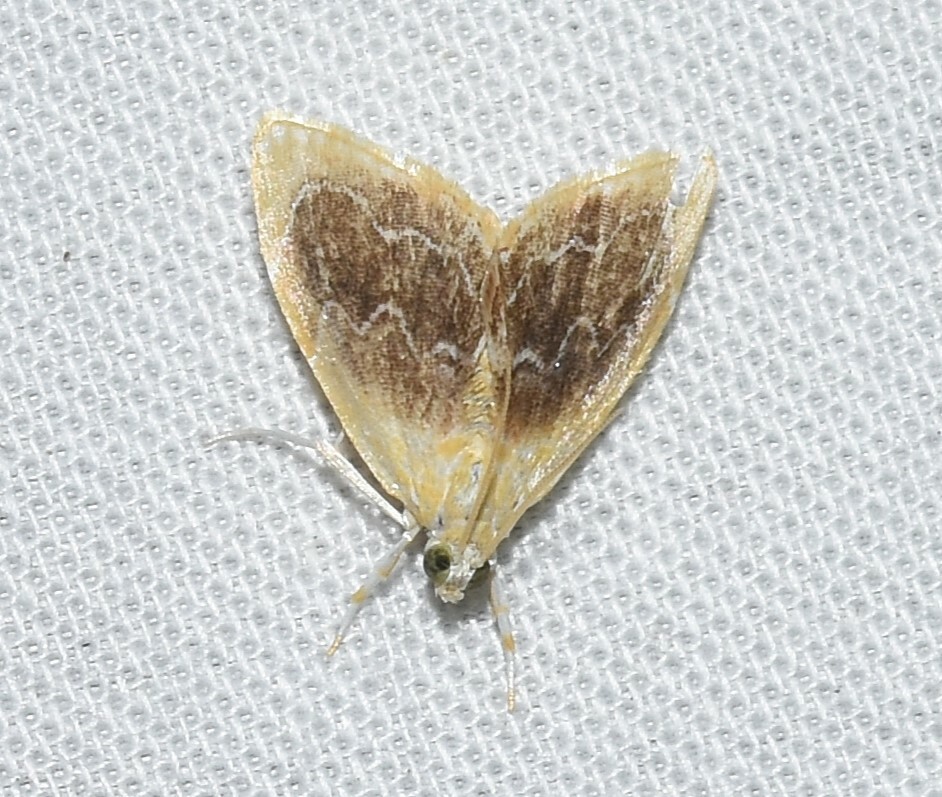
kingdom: Animalia
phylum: Arthropoda
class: Insecta
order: Lepidoptera
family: Crambidae
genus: Glaphyria
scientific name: Glaphyria fulminalis
